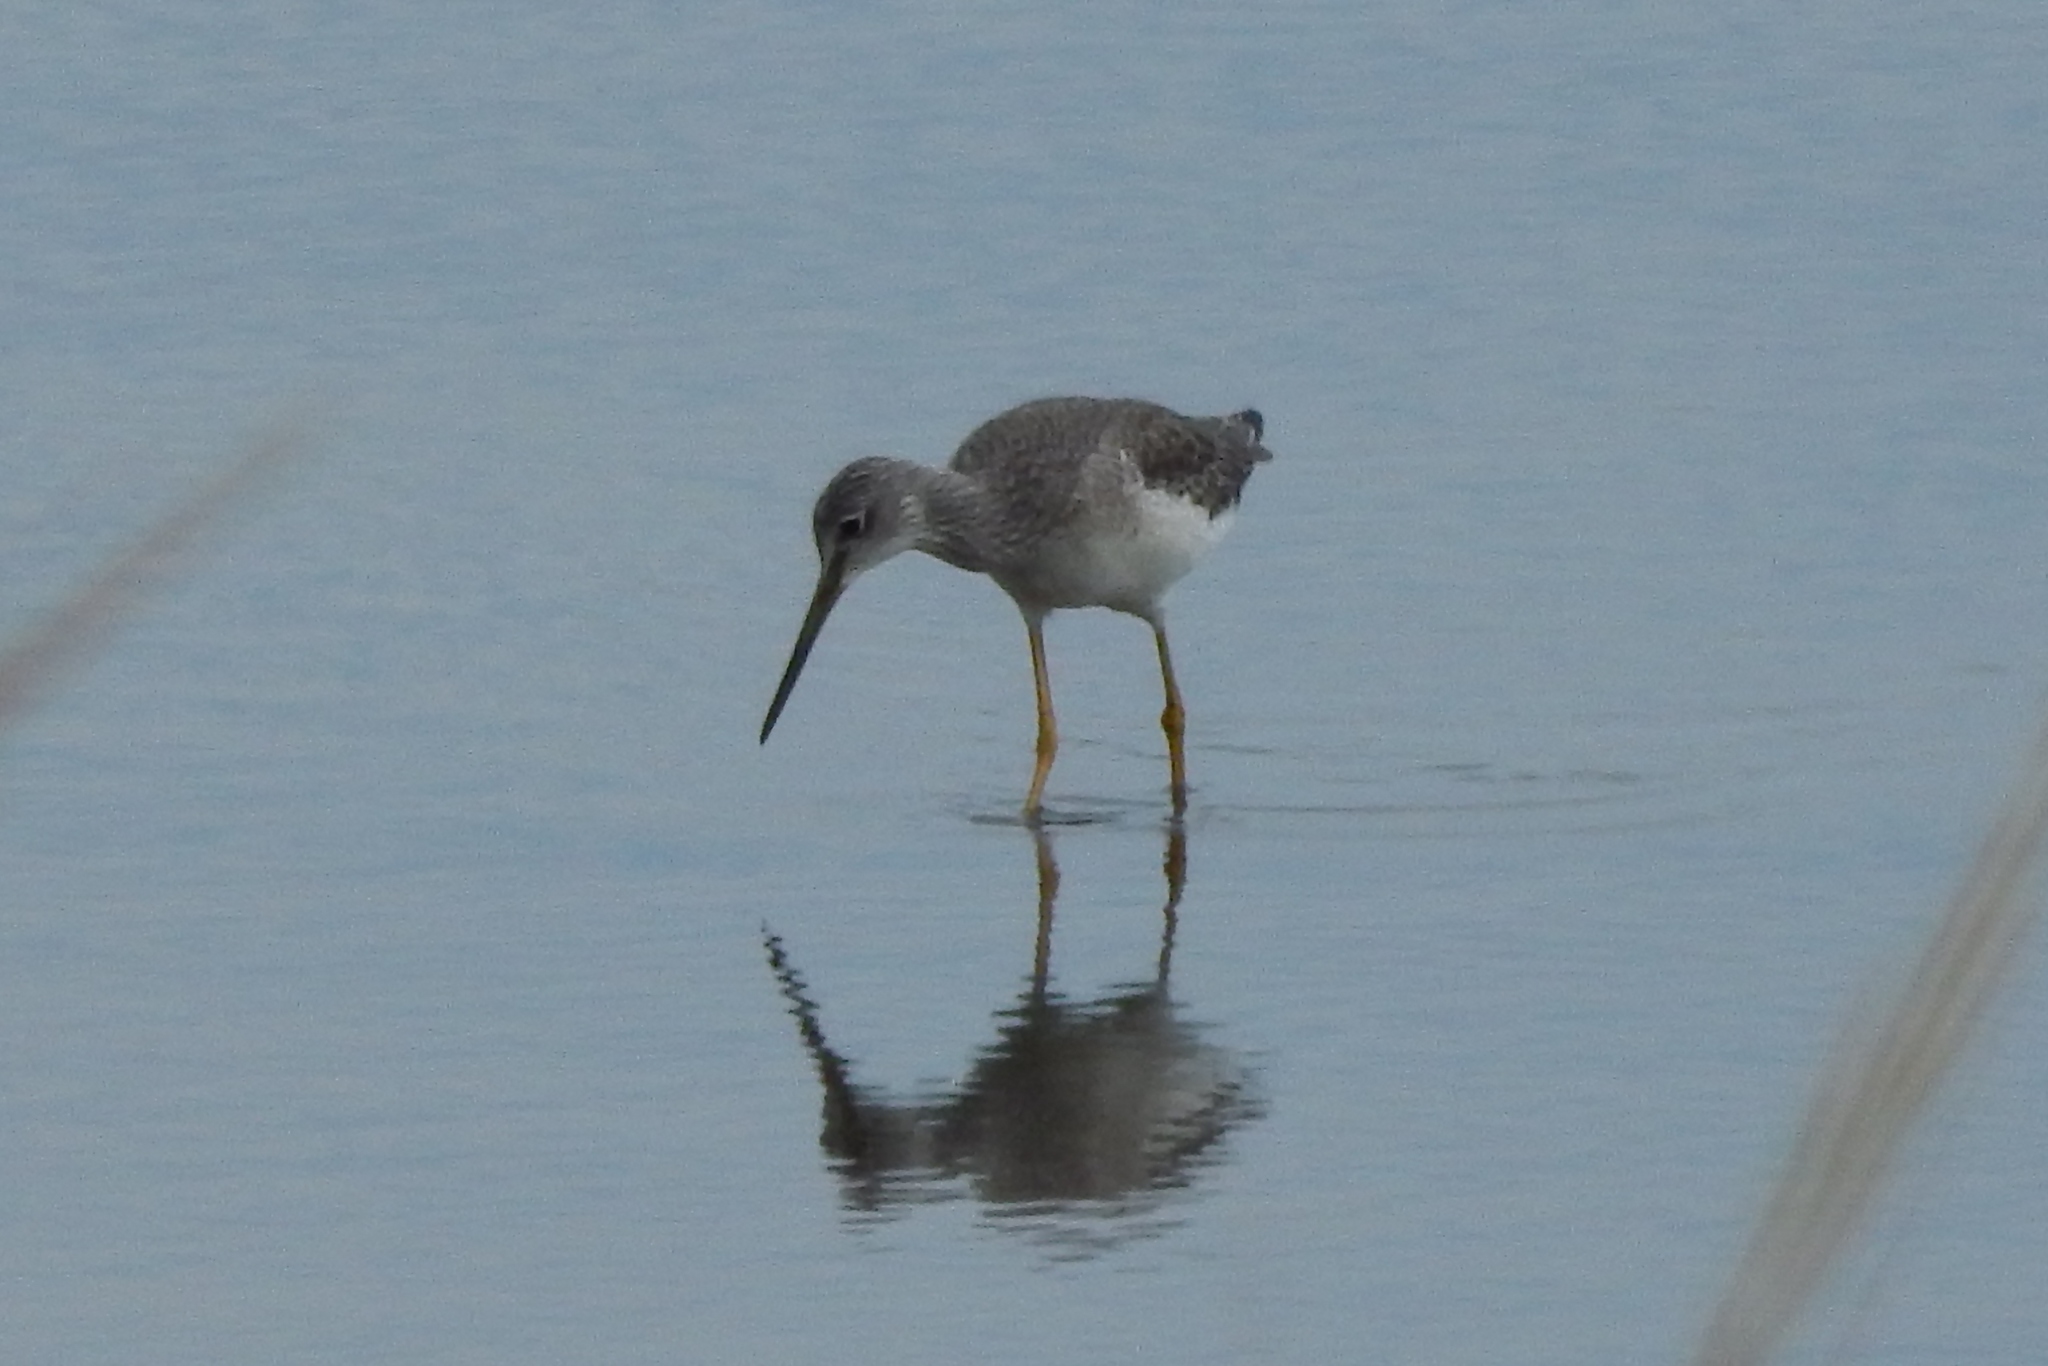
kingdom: Animalia
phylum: Chordata
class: Aves
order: Charadriiformes
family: Scolopacidae
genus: Tringa
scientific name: Tringa melanoleuca
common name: Greater yellowlegs
